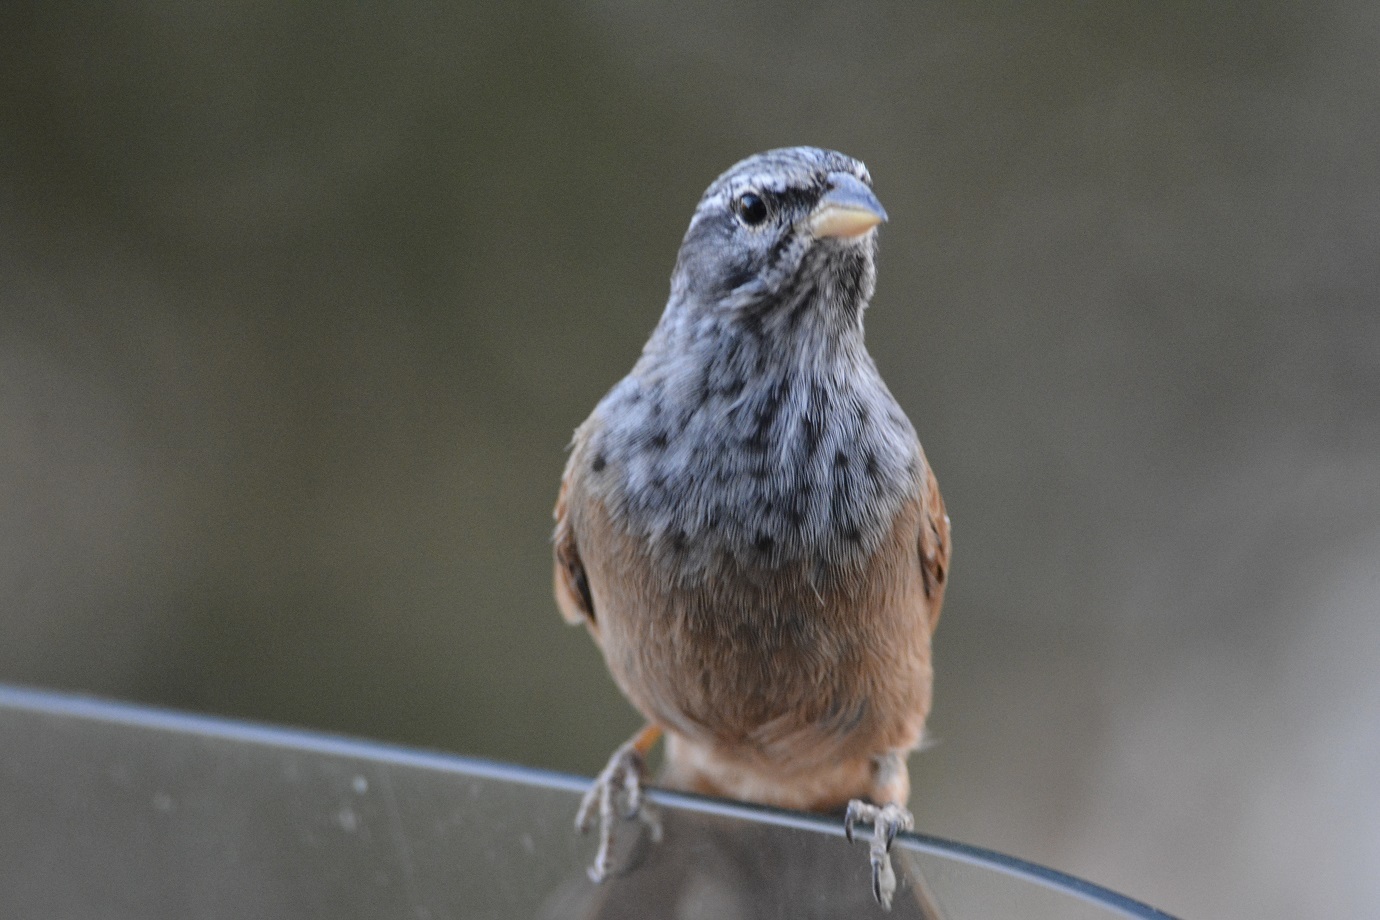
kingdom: Animalia
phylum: Chordata
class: Aves
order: Passeriformes
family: Emberizidae
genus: Emberiza
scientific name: Emberiza sahari
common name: House bunting
